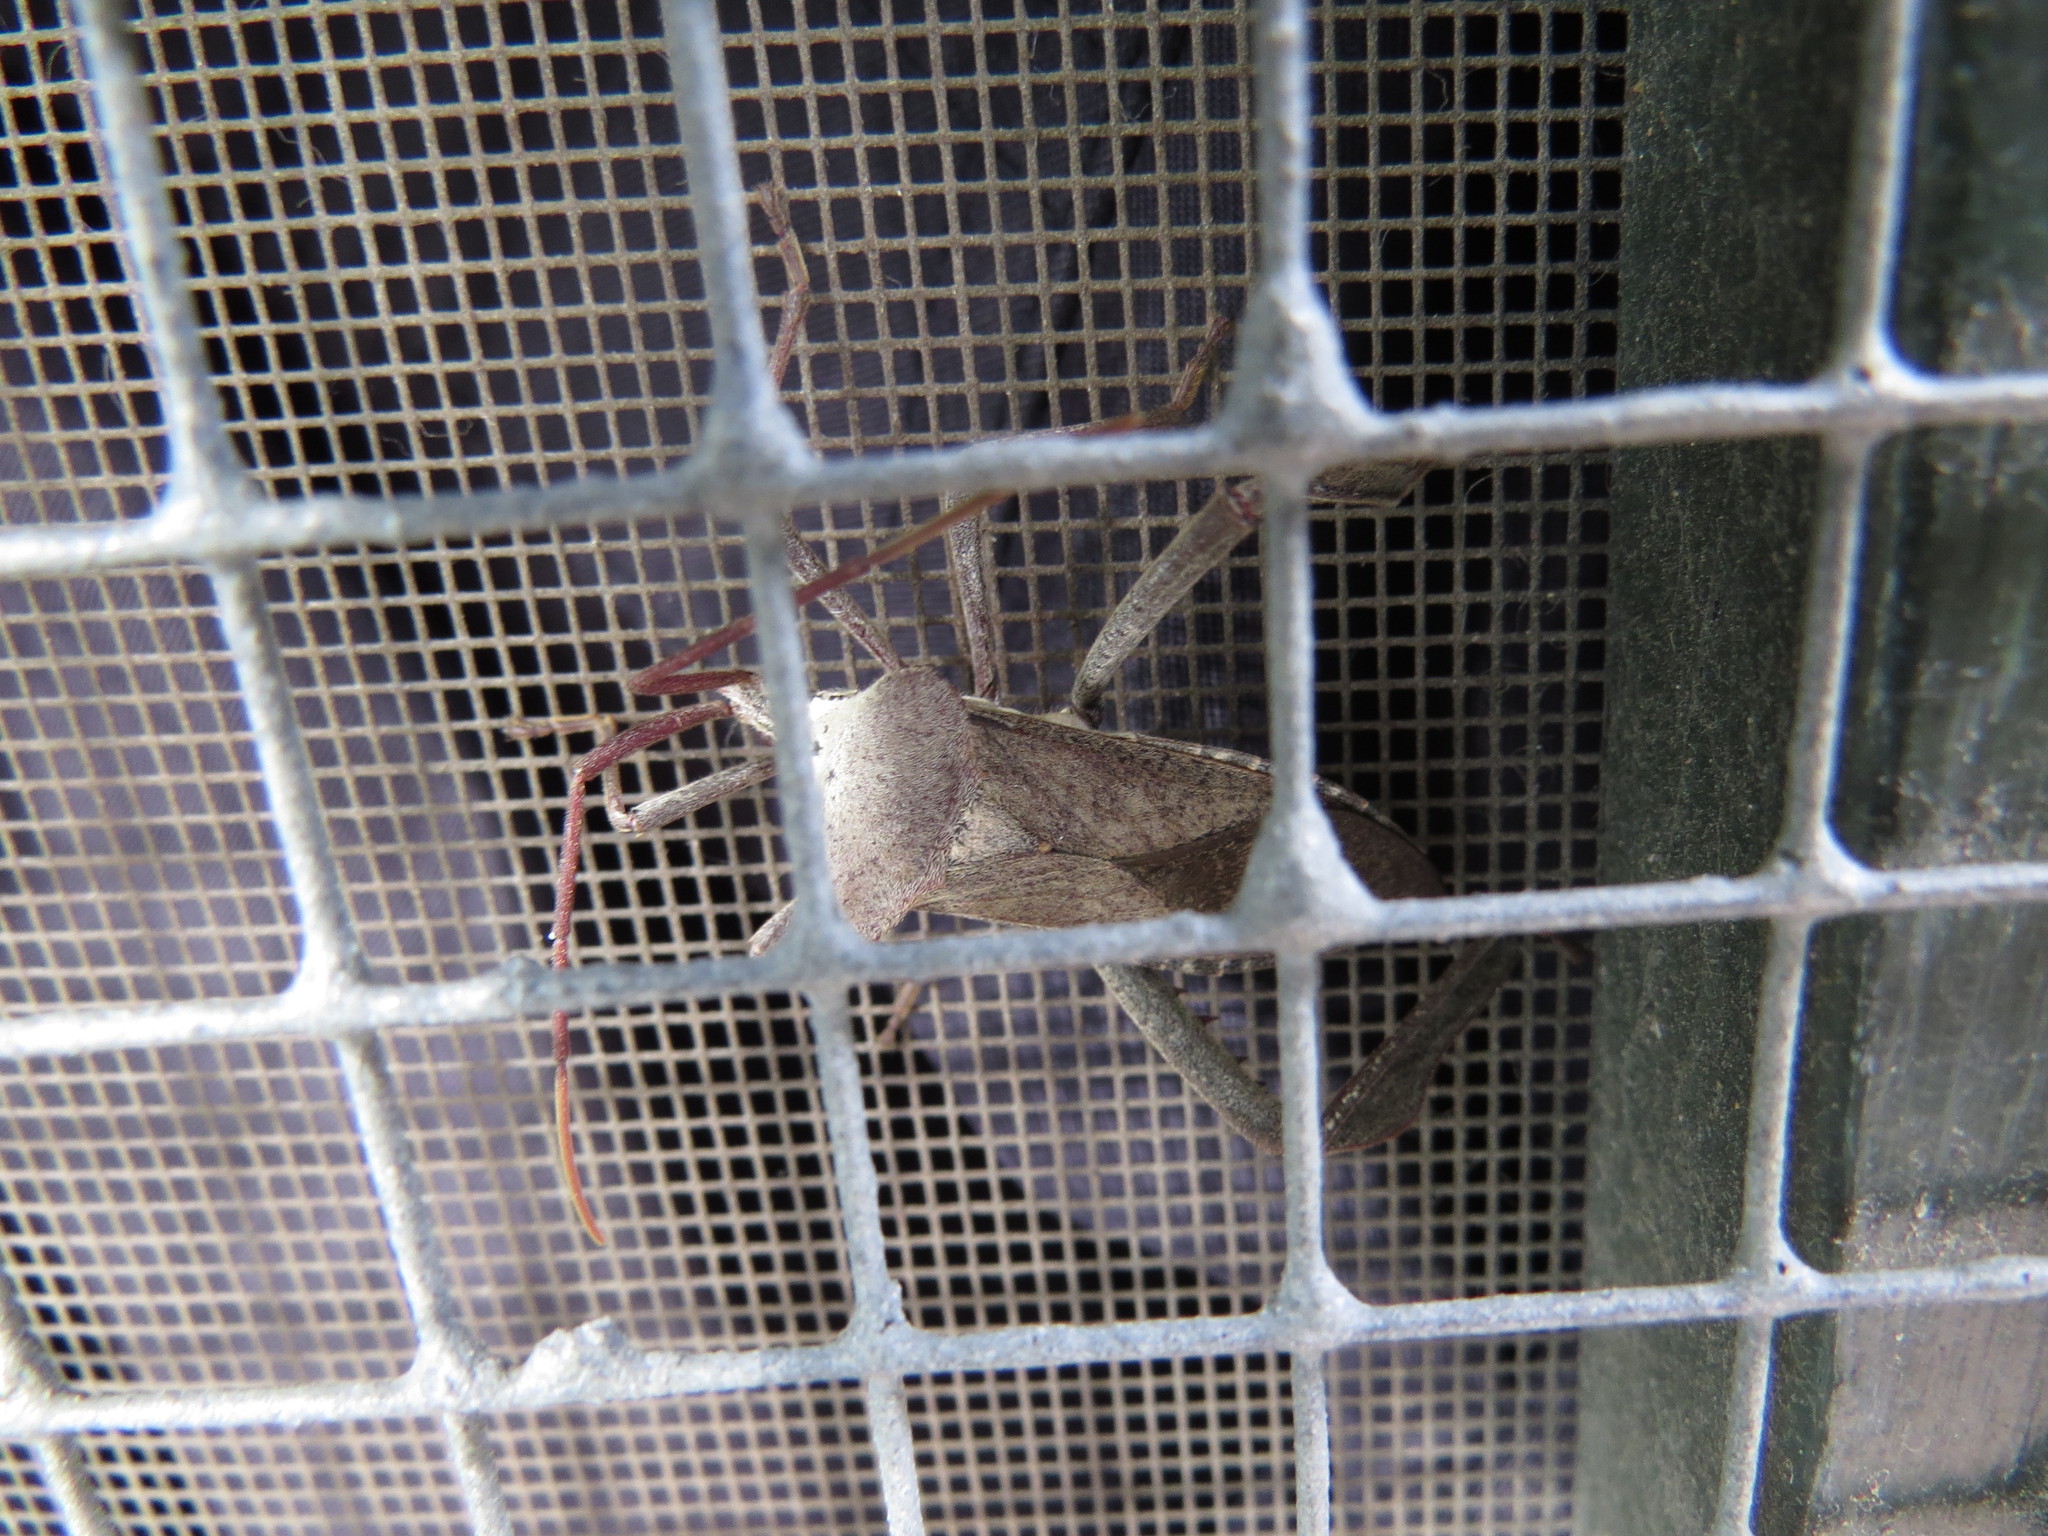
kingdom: Animalia
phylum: Arthropoda
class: Insecta
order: Hemiptera
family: Coreidae
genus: Acanthocephala
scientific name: Acanthocephala declivis
